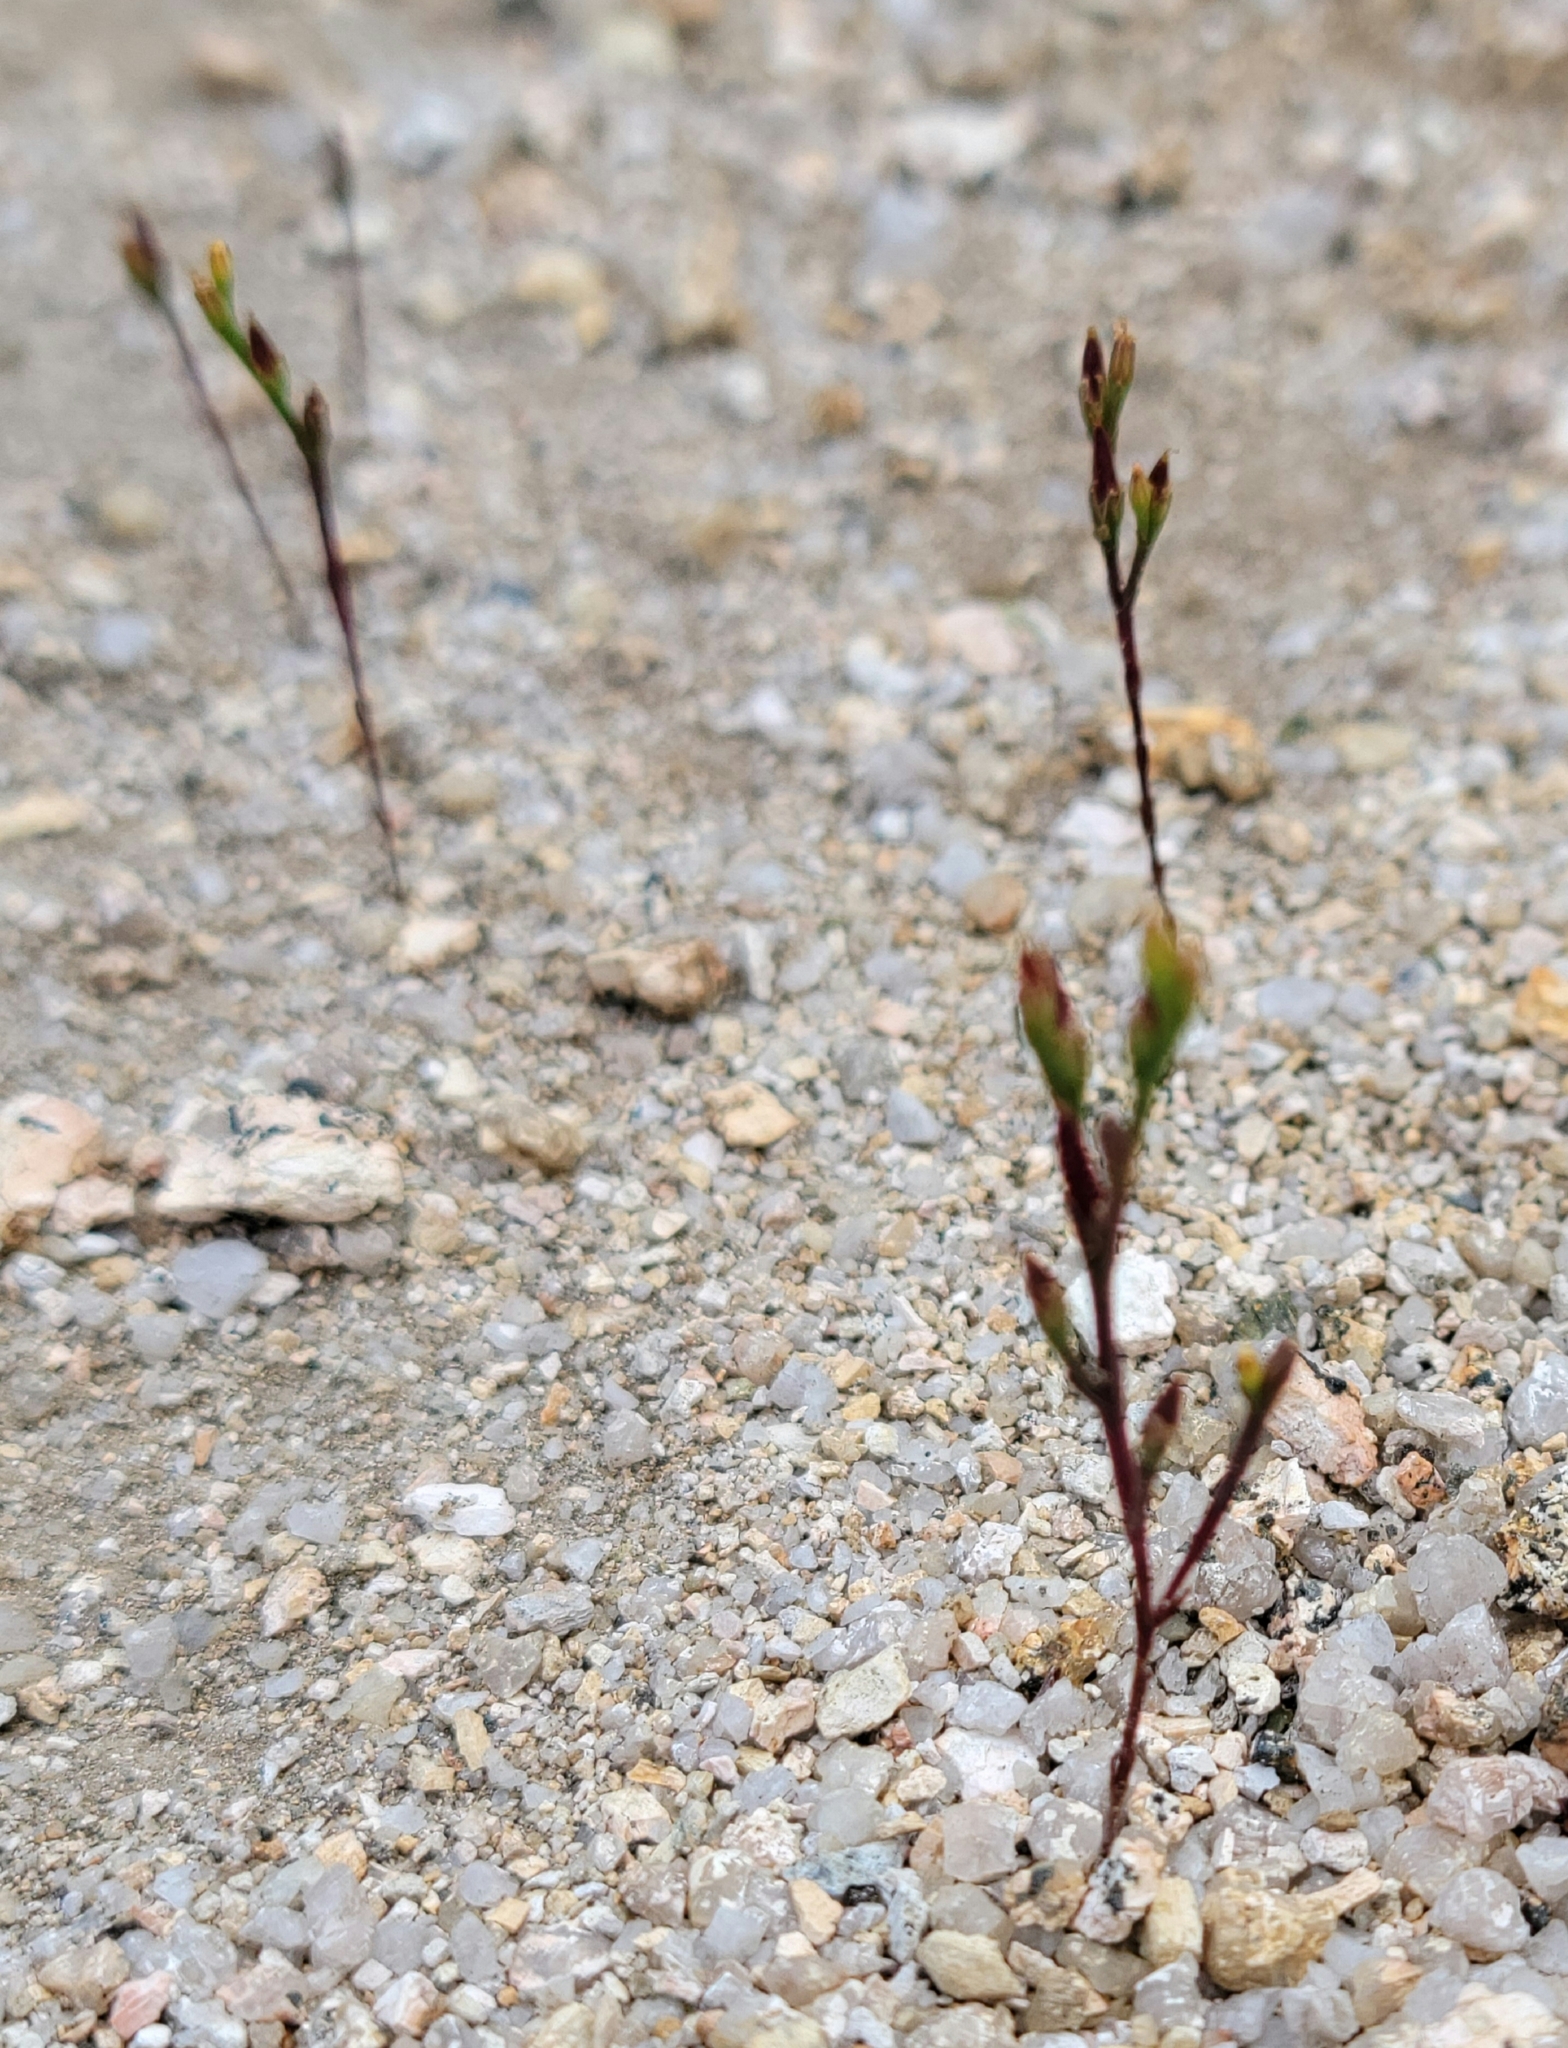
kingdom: Plantae
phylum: Tracheophyta
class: Magnoliopsida
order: Malpighiales
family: Hypericaceae
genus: Hypericum
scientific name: Hypericum gentianoides
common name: Gentian-leaved st. john's-wort
